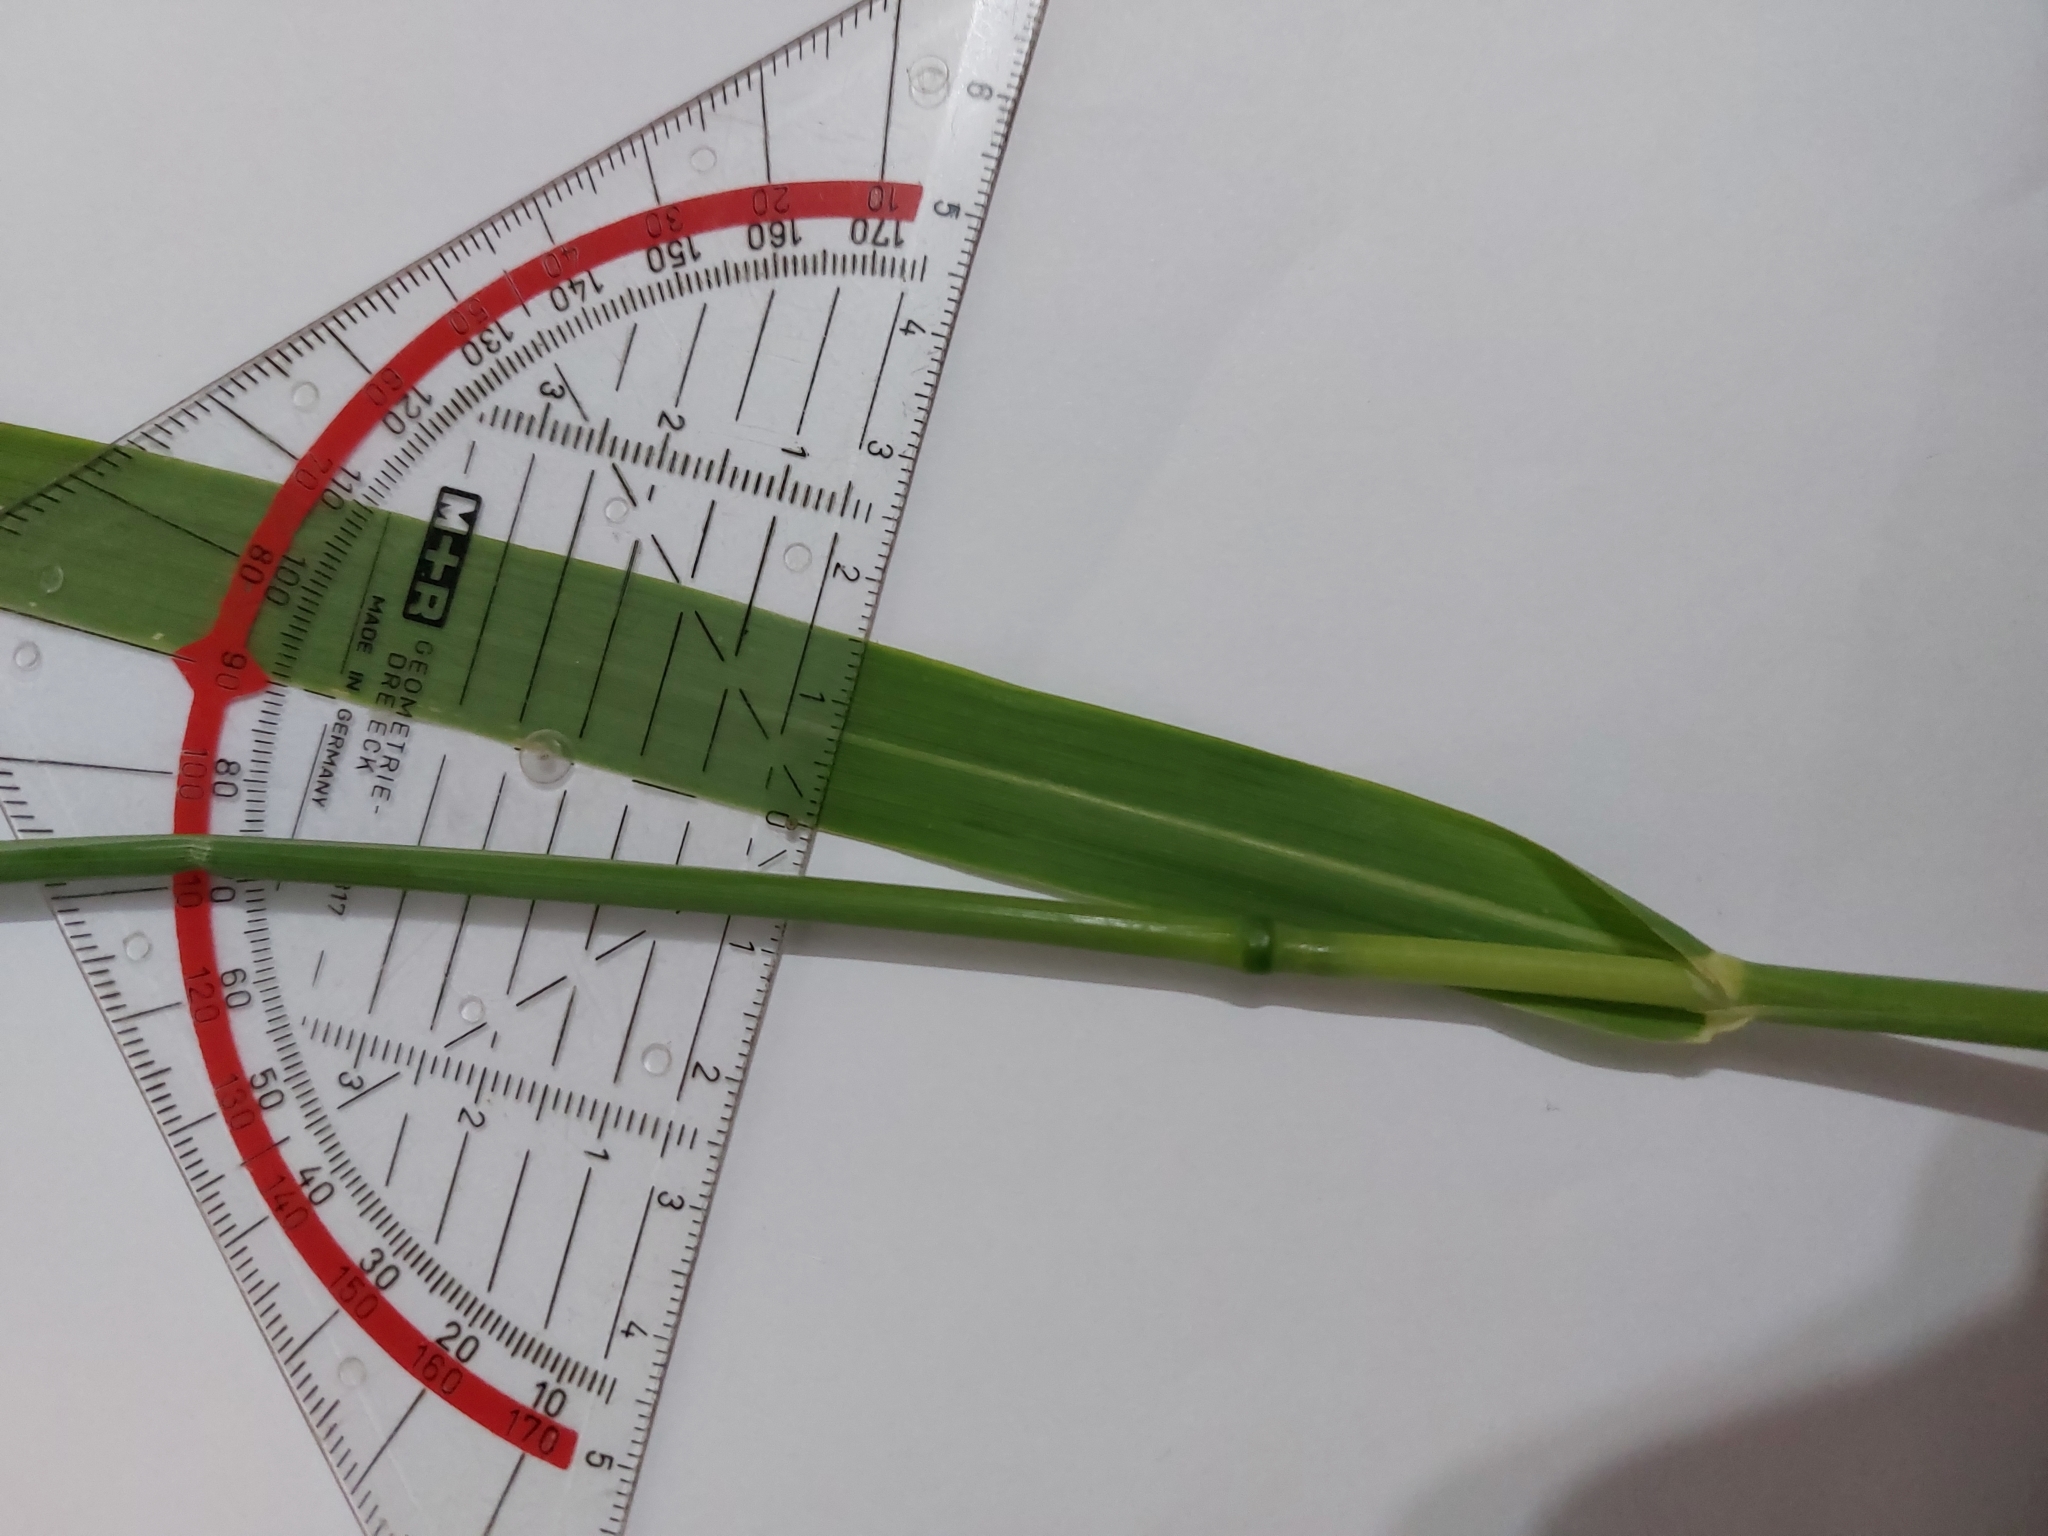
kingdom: Plantae
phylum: Tracheophyta
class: Liliopsida
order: Poales
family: Poaceae
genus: Avena
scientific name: Avena fatua
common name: Wild oat
